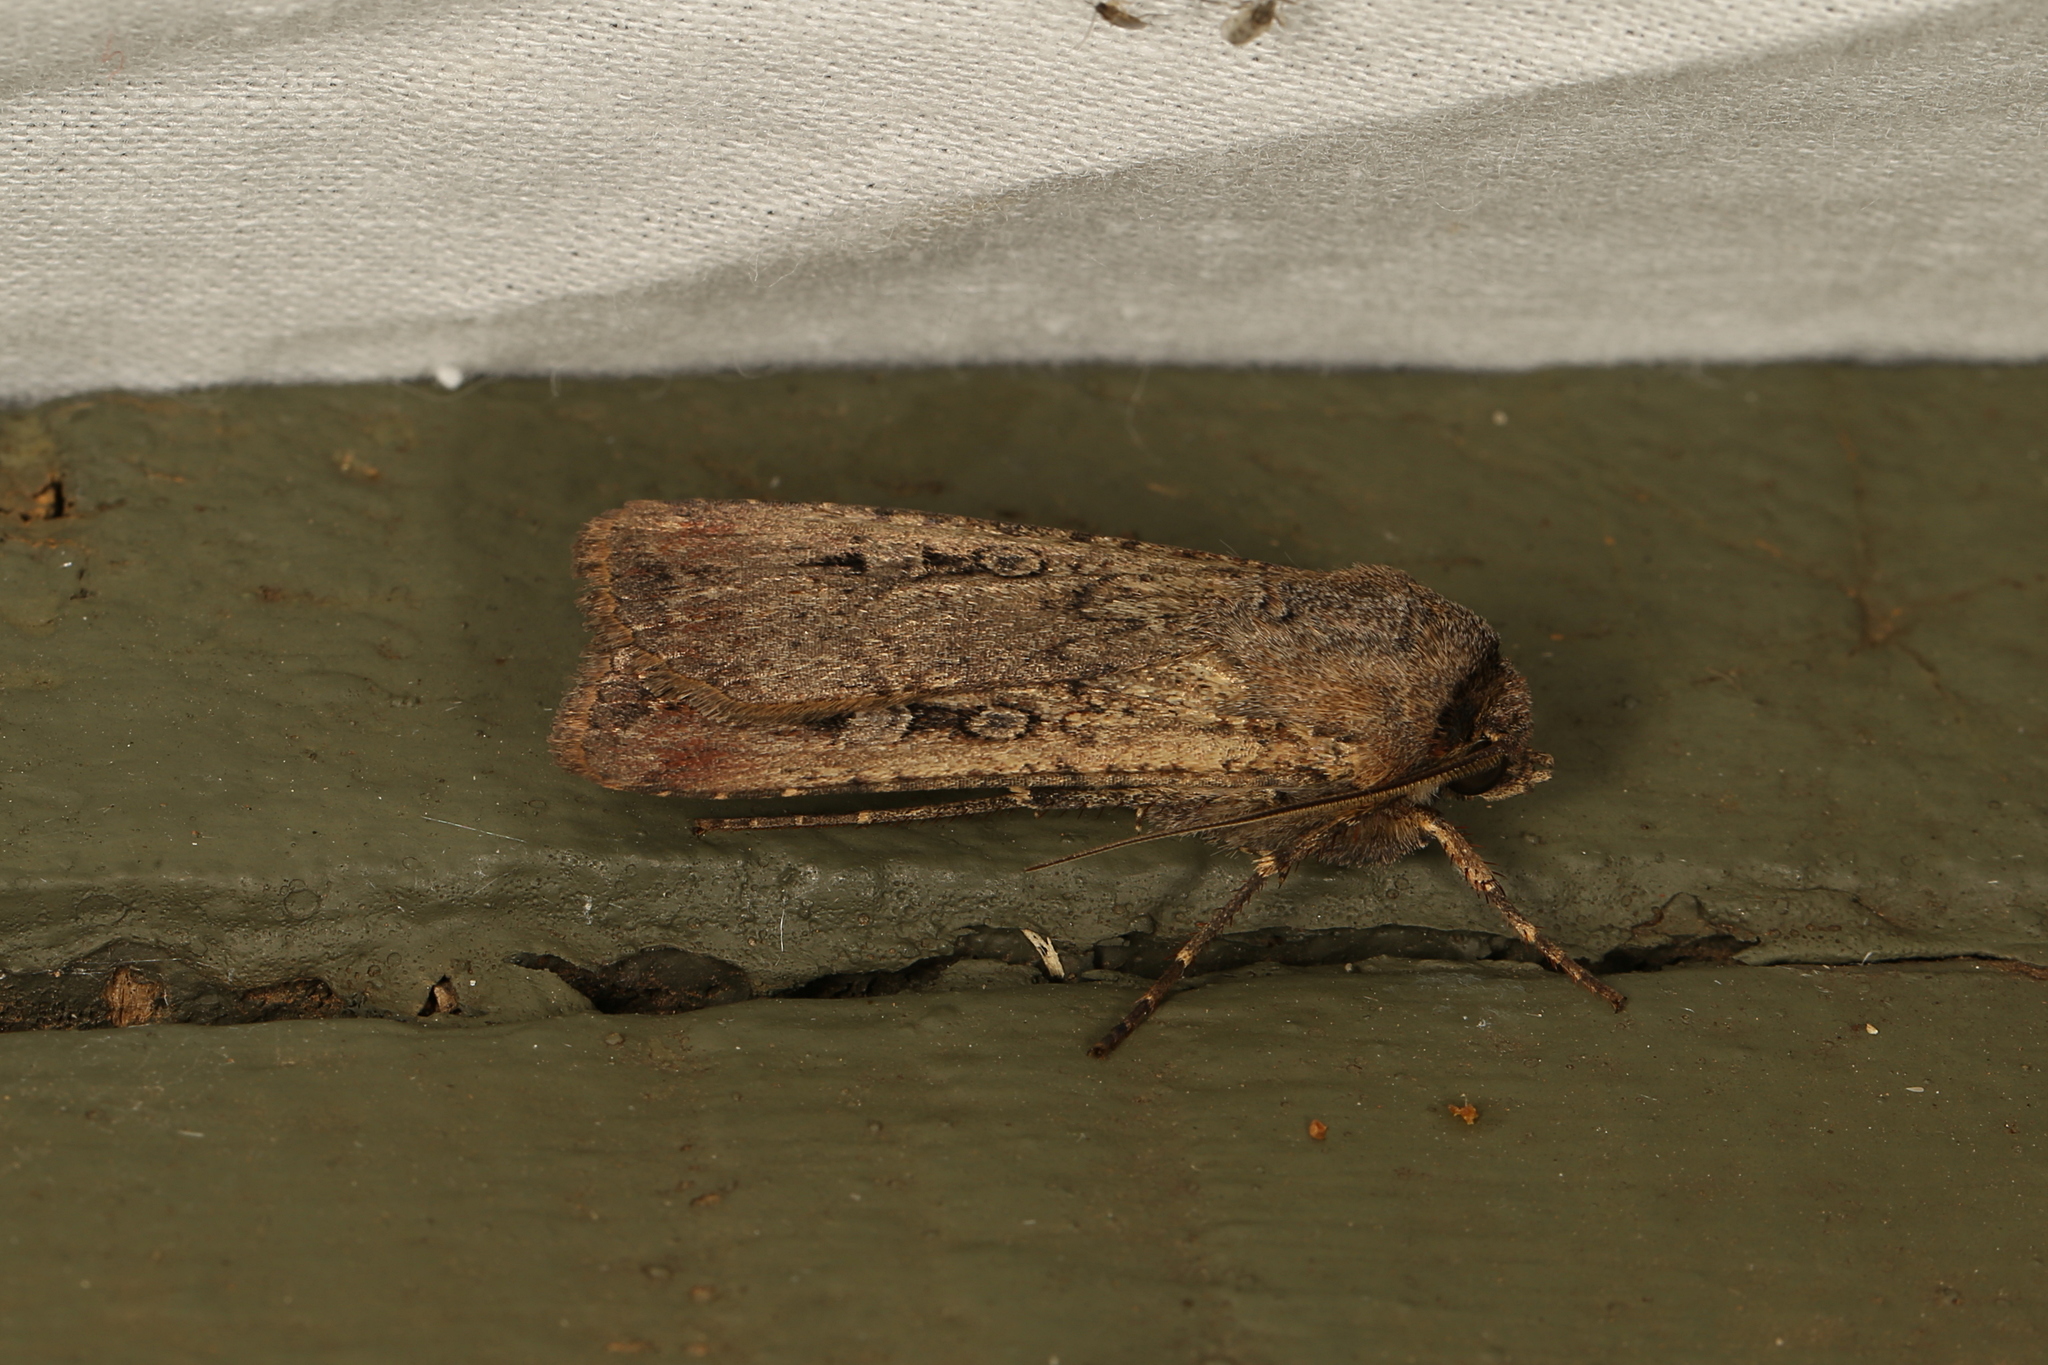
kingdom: Animalia
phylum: Arthropoda
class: Insecta
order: Lepidoptera
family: Noctuidae
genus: Agrotis
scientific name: Agrotis infusa
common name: Bogong moth
